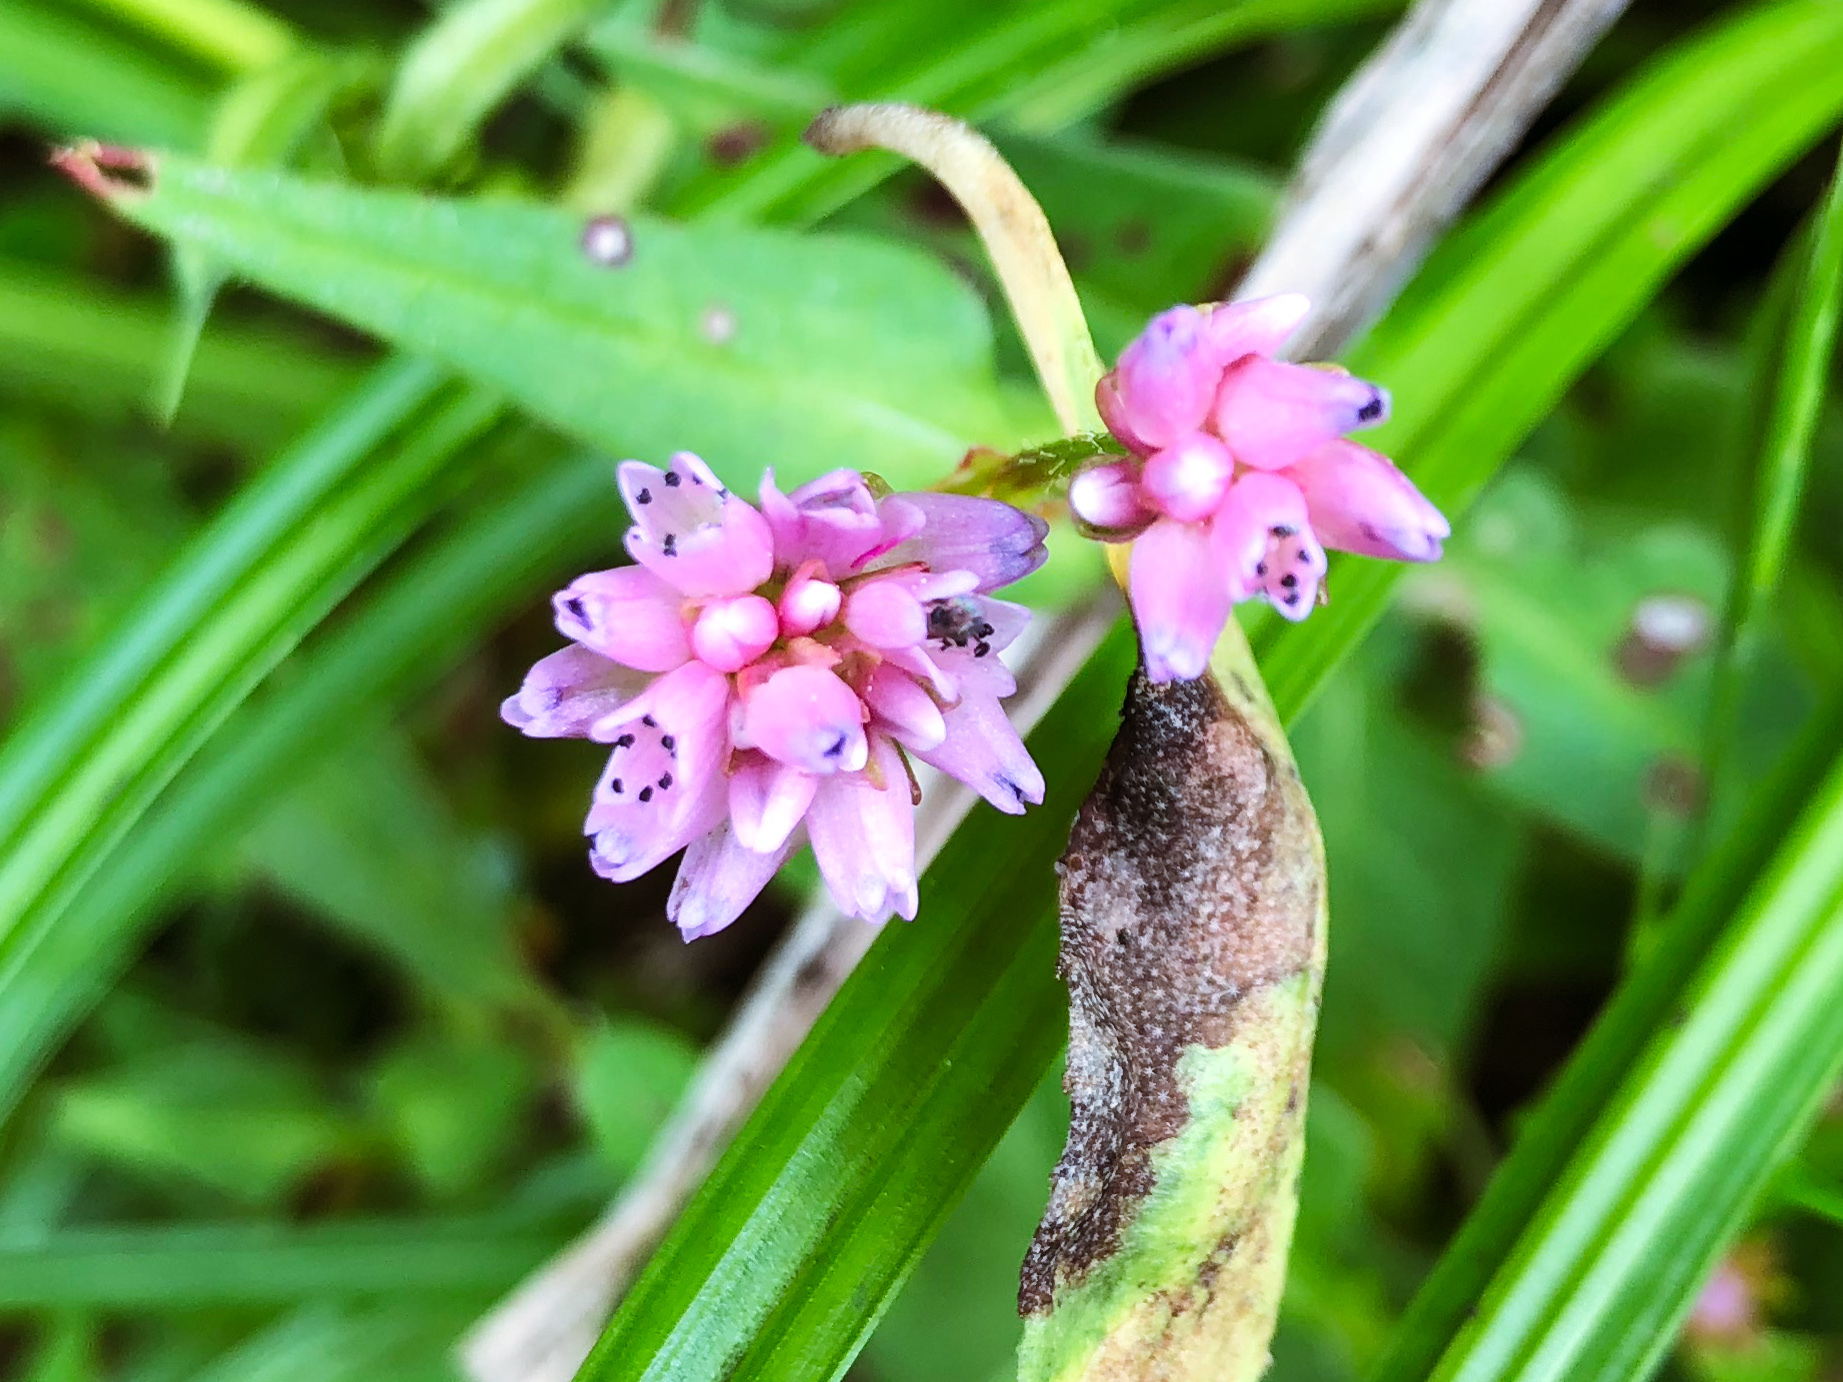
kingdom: Plantae
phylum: Tracheophyta
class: Magnoliopsida
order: Caryophyllales
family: Polygonaceae
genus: Persicaria
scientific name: Persicaria runcinata
